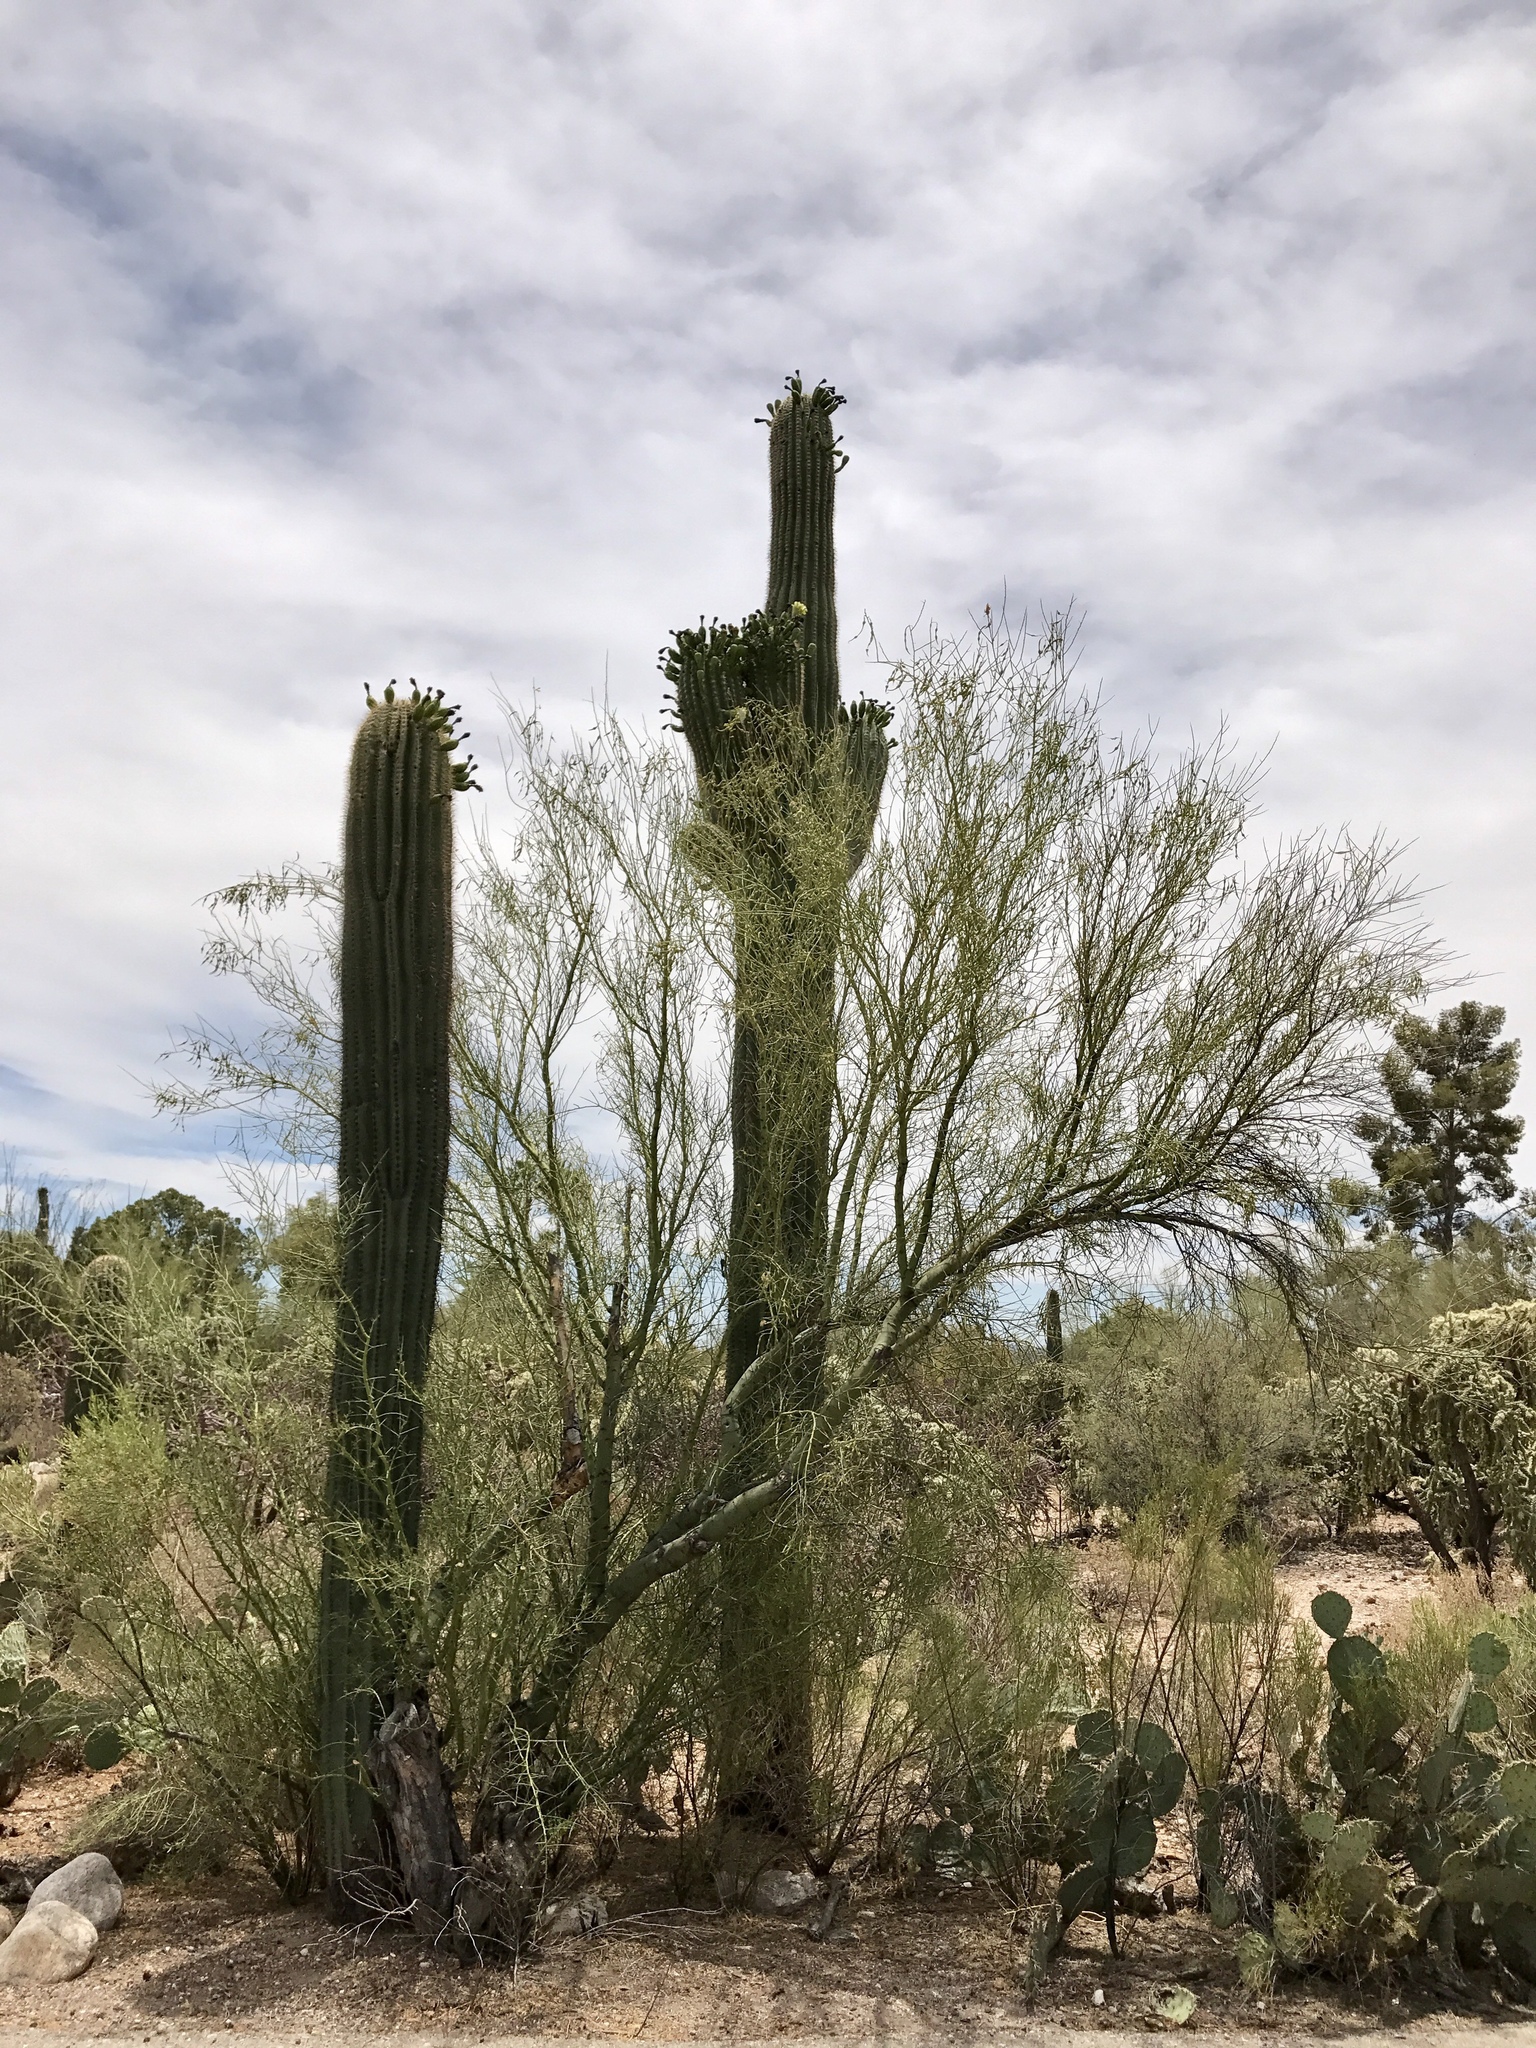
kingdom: Plantae
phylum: Tracheophyta
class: Magnoliopsida
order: Fabales
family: Fabaceae
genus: Parkinsonia
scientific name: Parkinsonia microphylla
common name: Yellow paloverde
